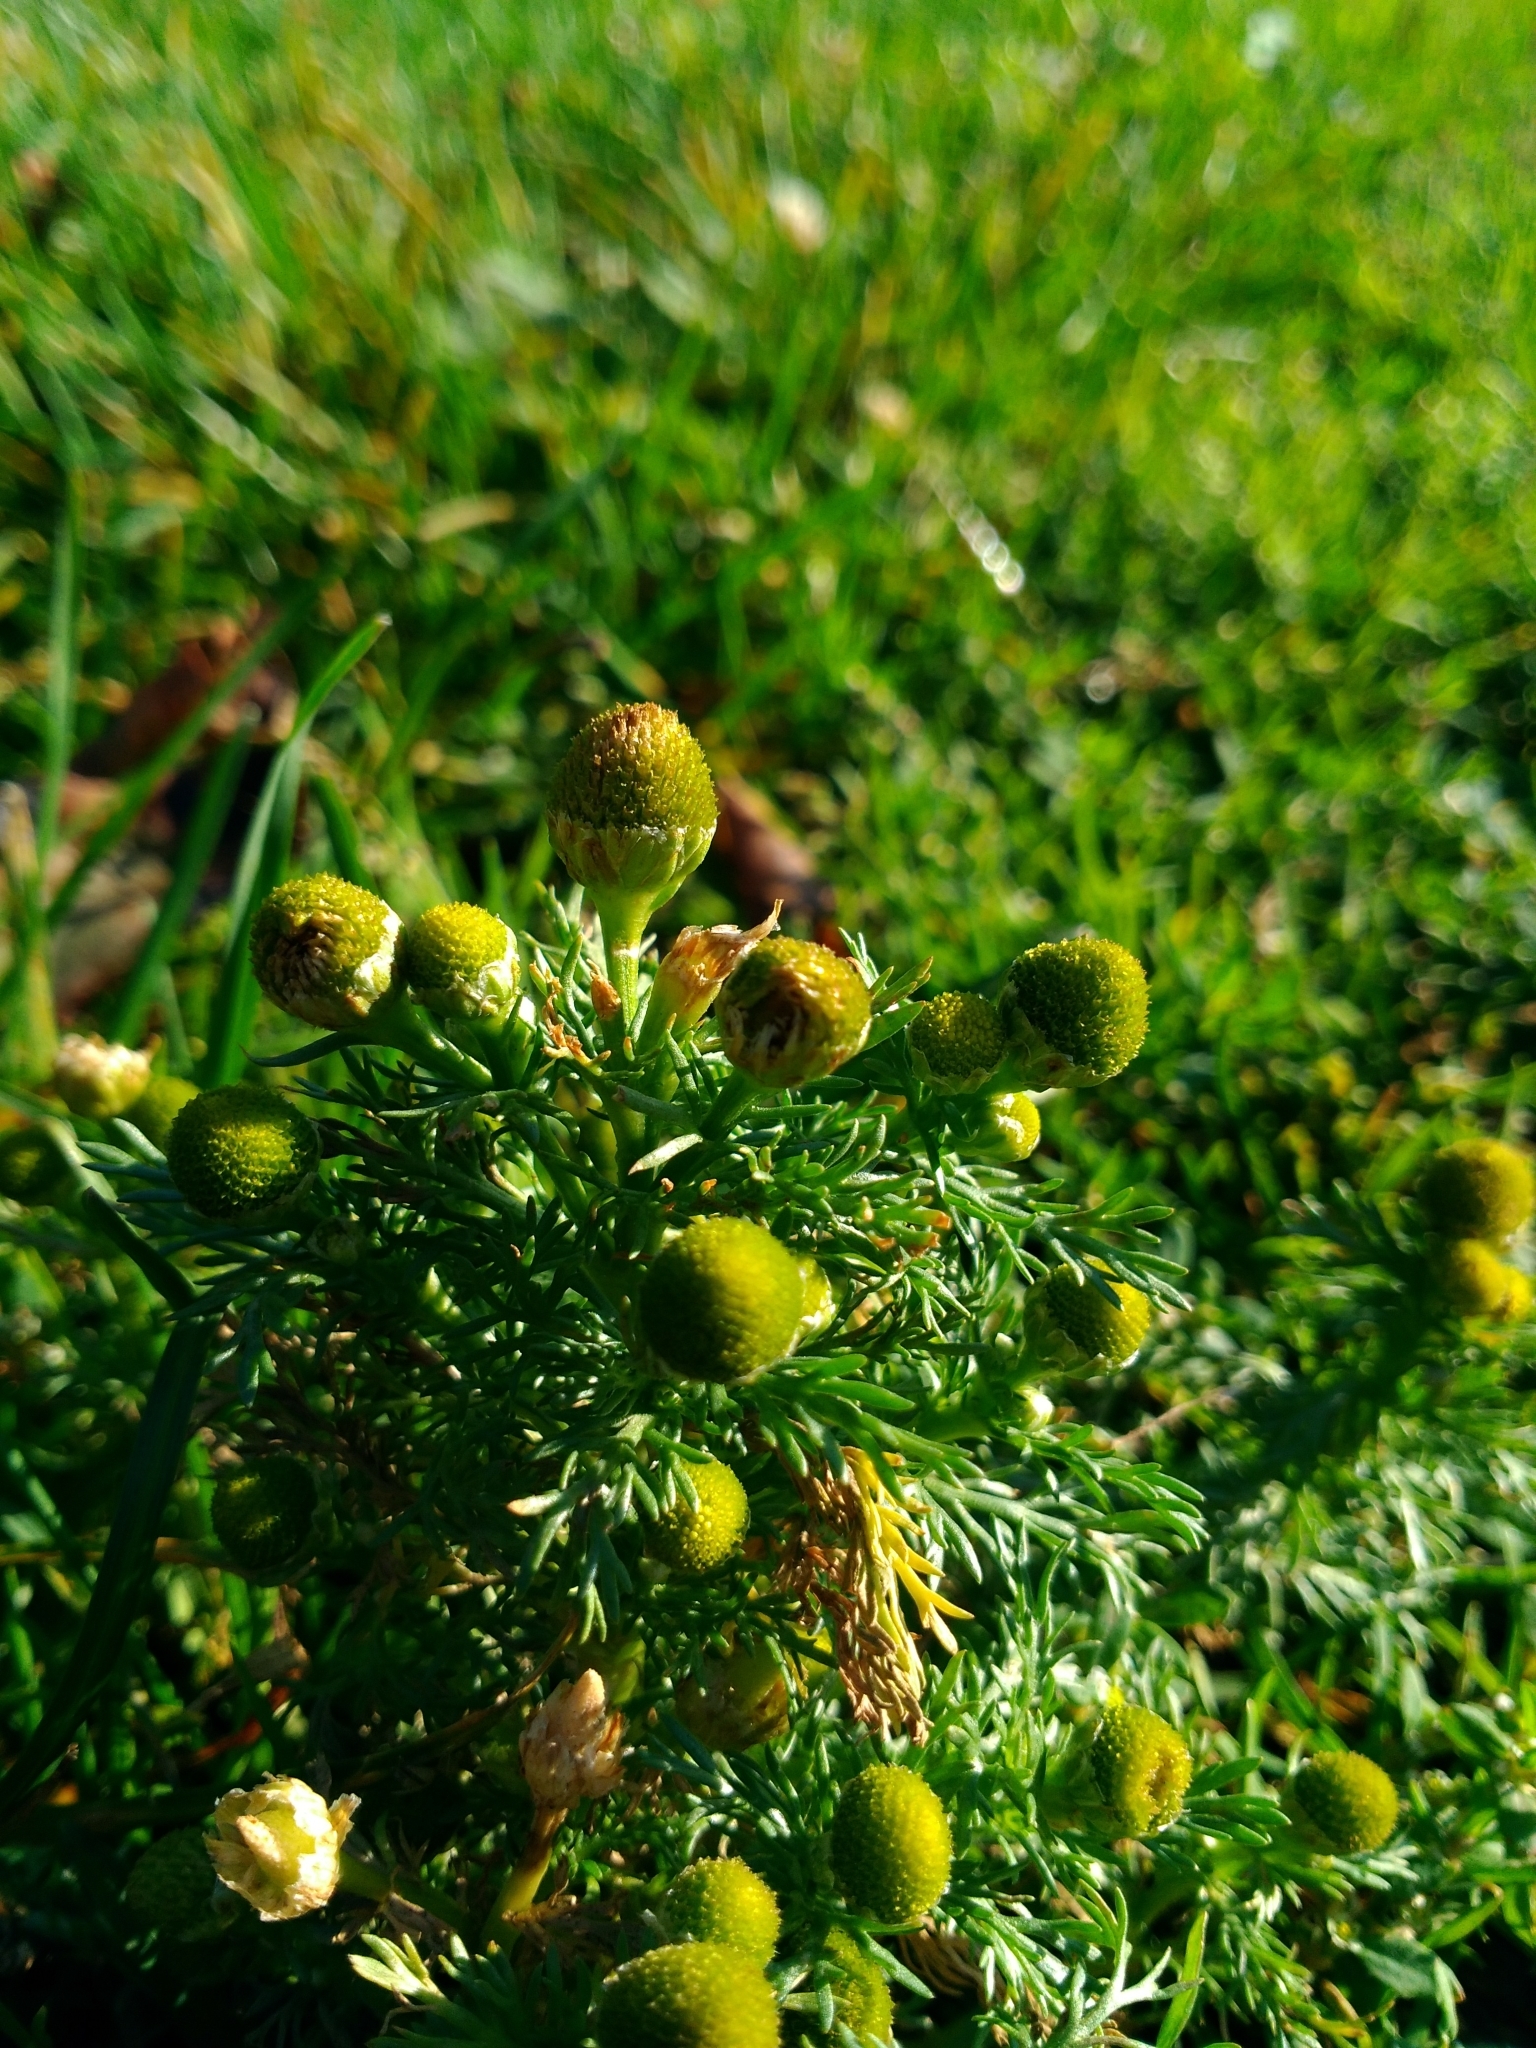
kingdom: Plantae
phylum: Tracheophyta
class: Magnoliopsida
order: Asterales
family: Asteraceae
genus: Matricaria
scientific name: Matricaria discoidea
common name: Disc mayweed
